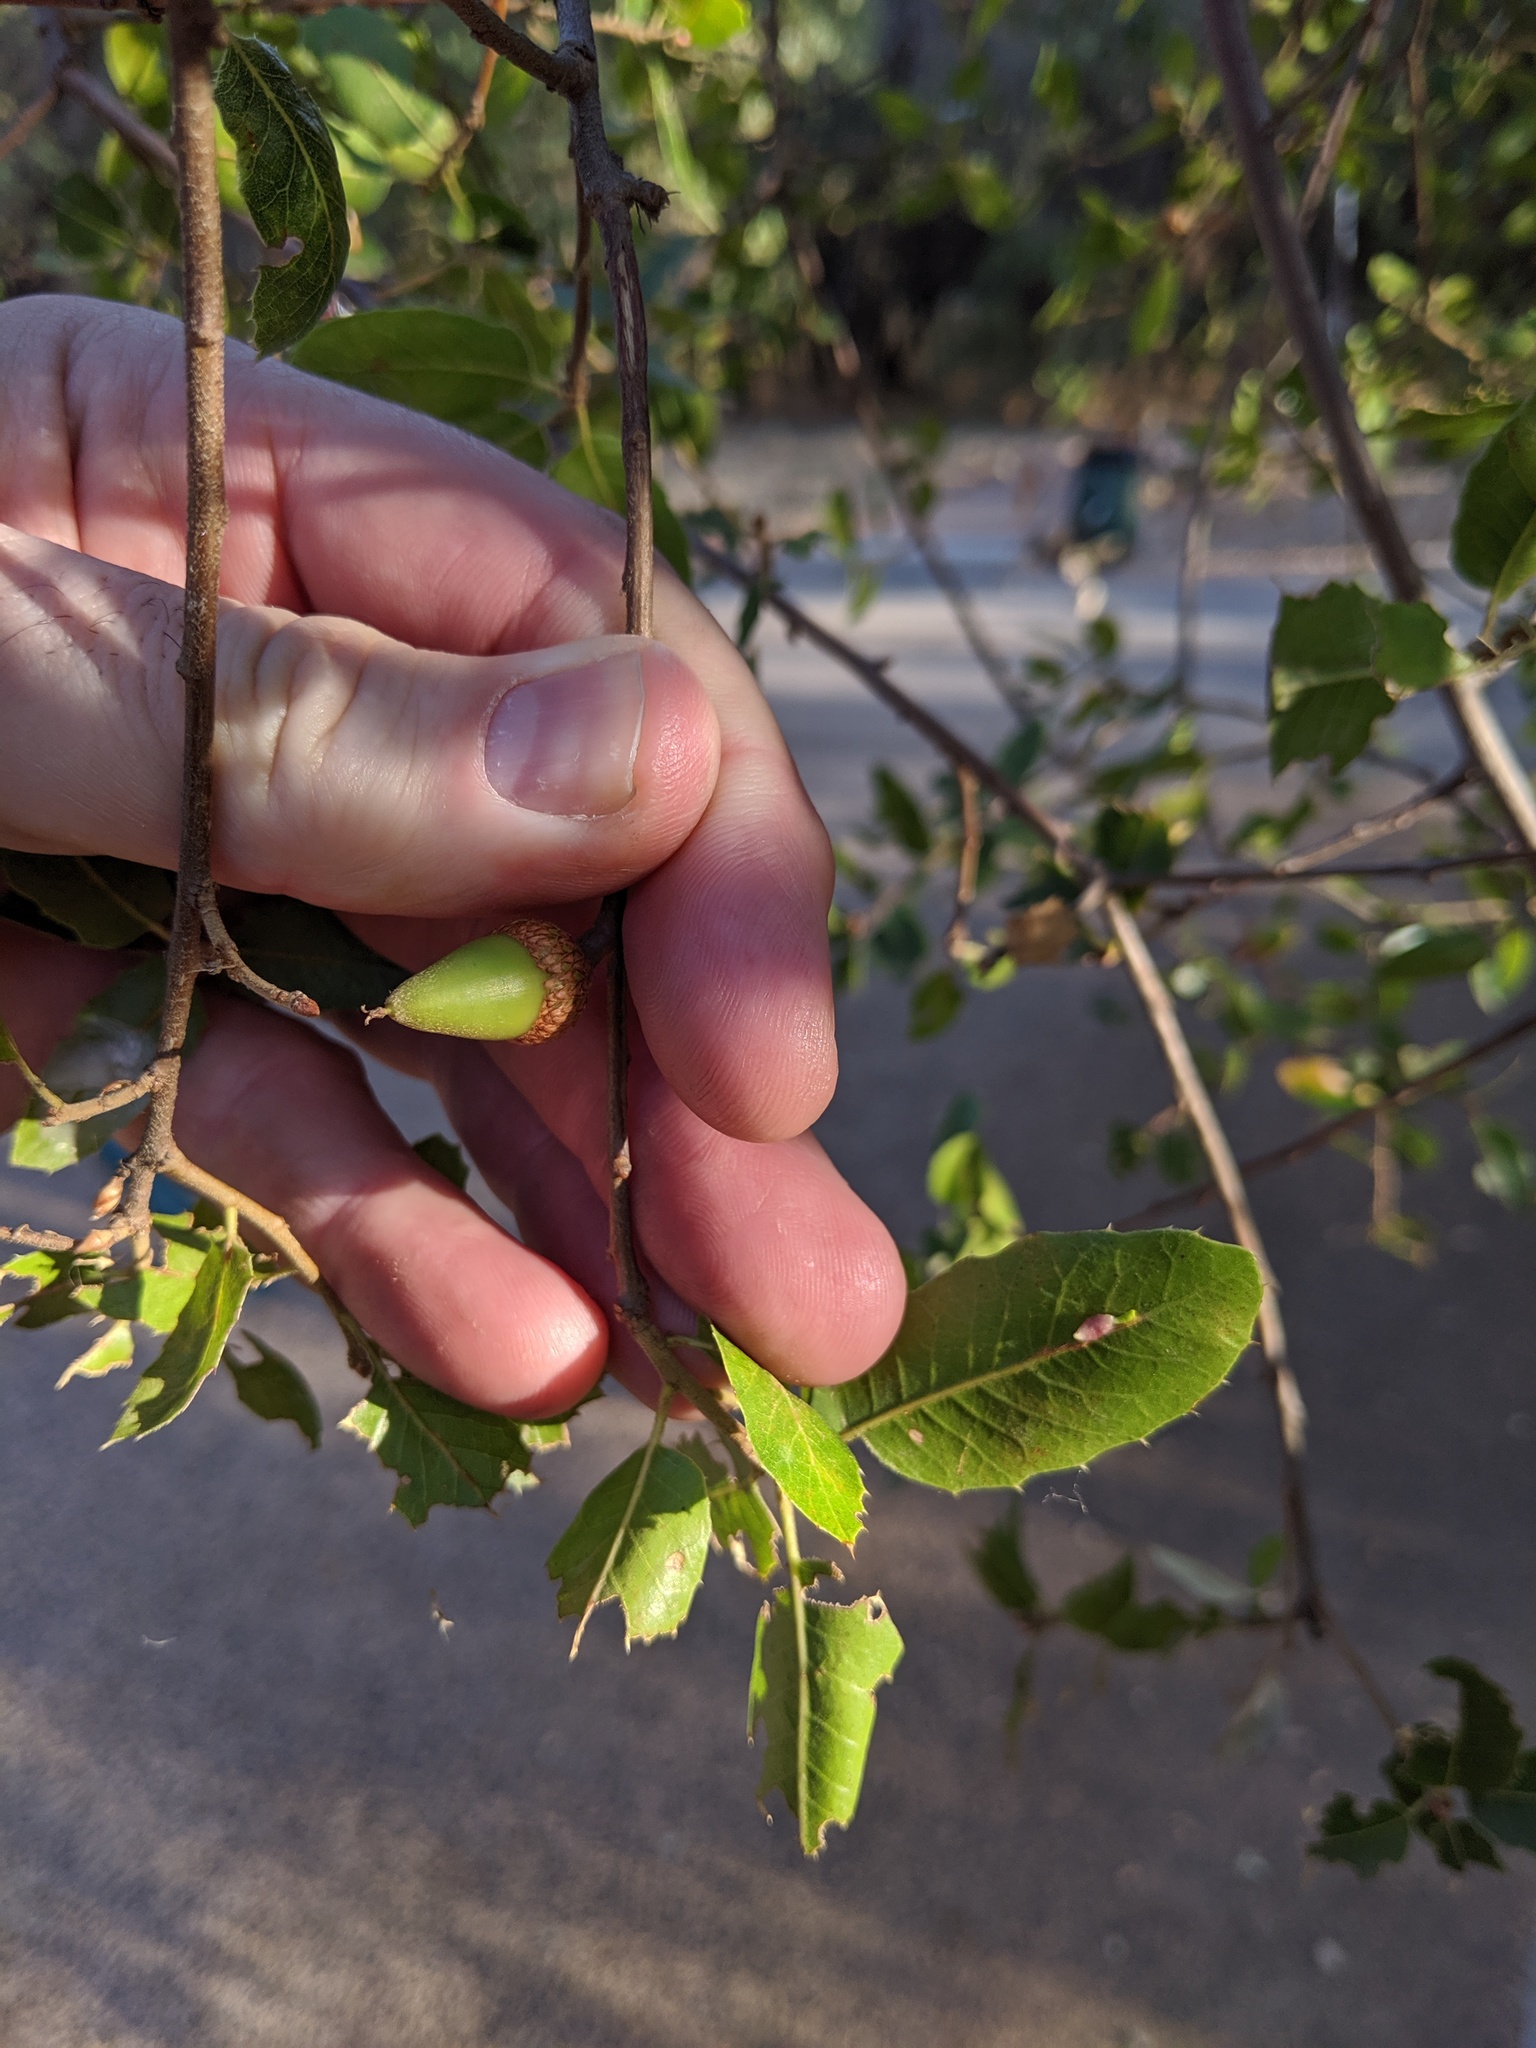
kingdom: Plantae
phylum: Tracheophyta
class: Magnoliopsida
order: Fagales
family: Fagaceae
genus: Quercus
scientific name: Quercus wislizeni
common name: Interior live oak
